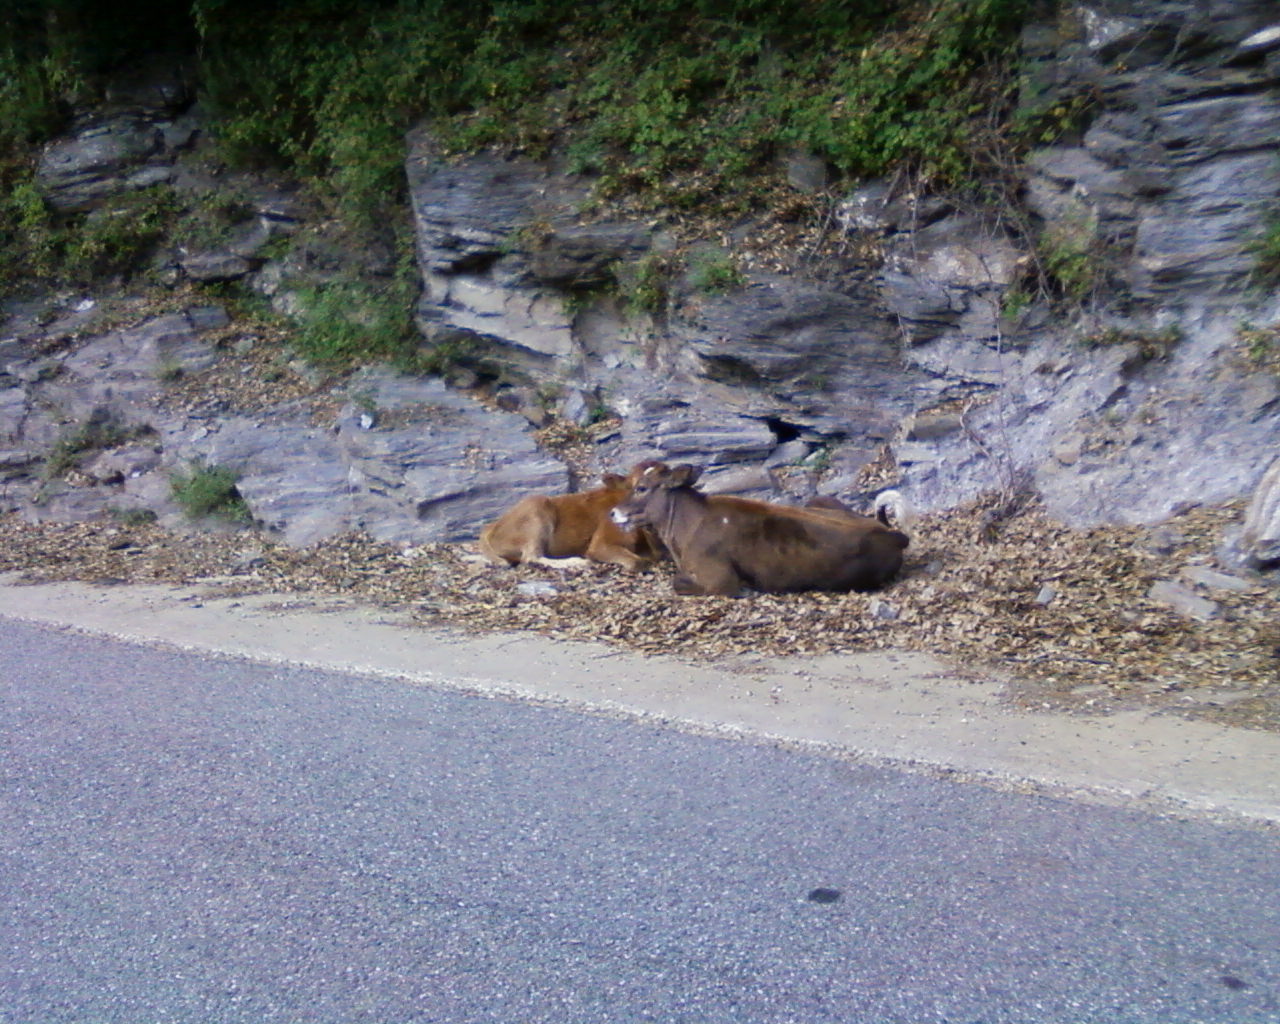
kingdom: Animalia
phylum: Chordata
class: Mammalia
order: Artiodactyla
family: Bovidae
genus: Bos
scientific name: Bos taurus
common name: Domesticated cattle
